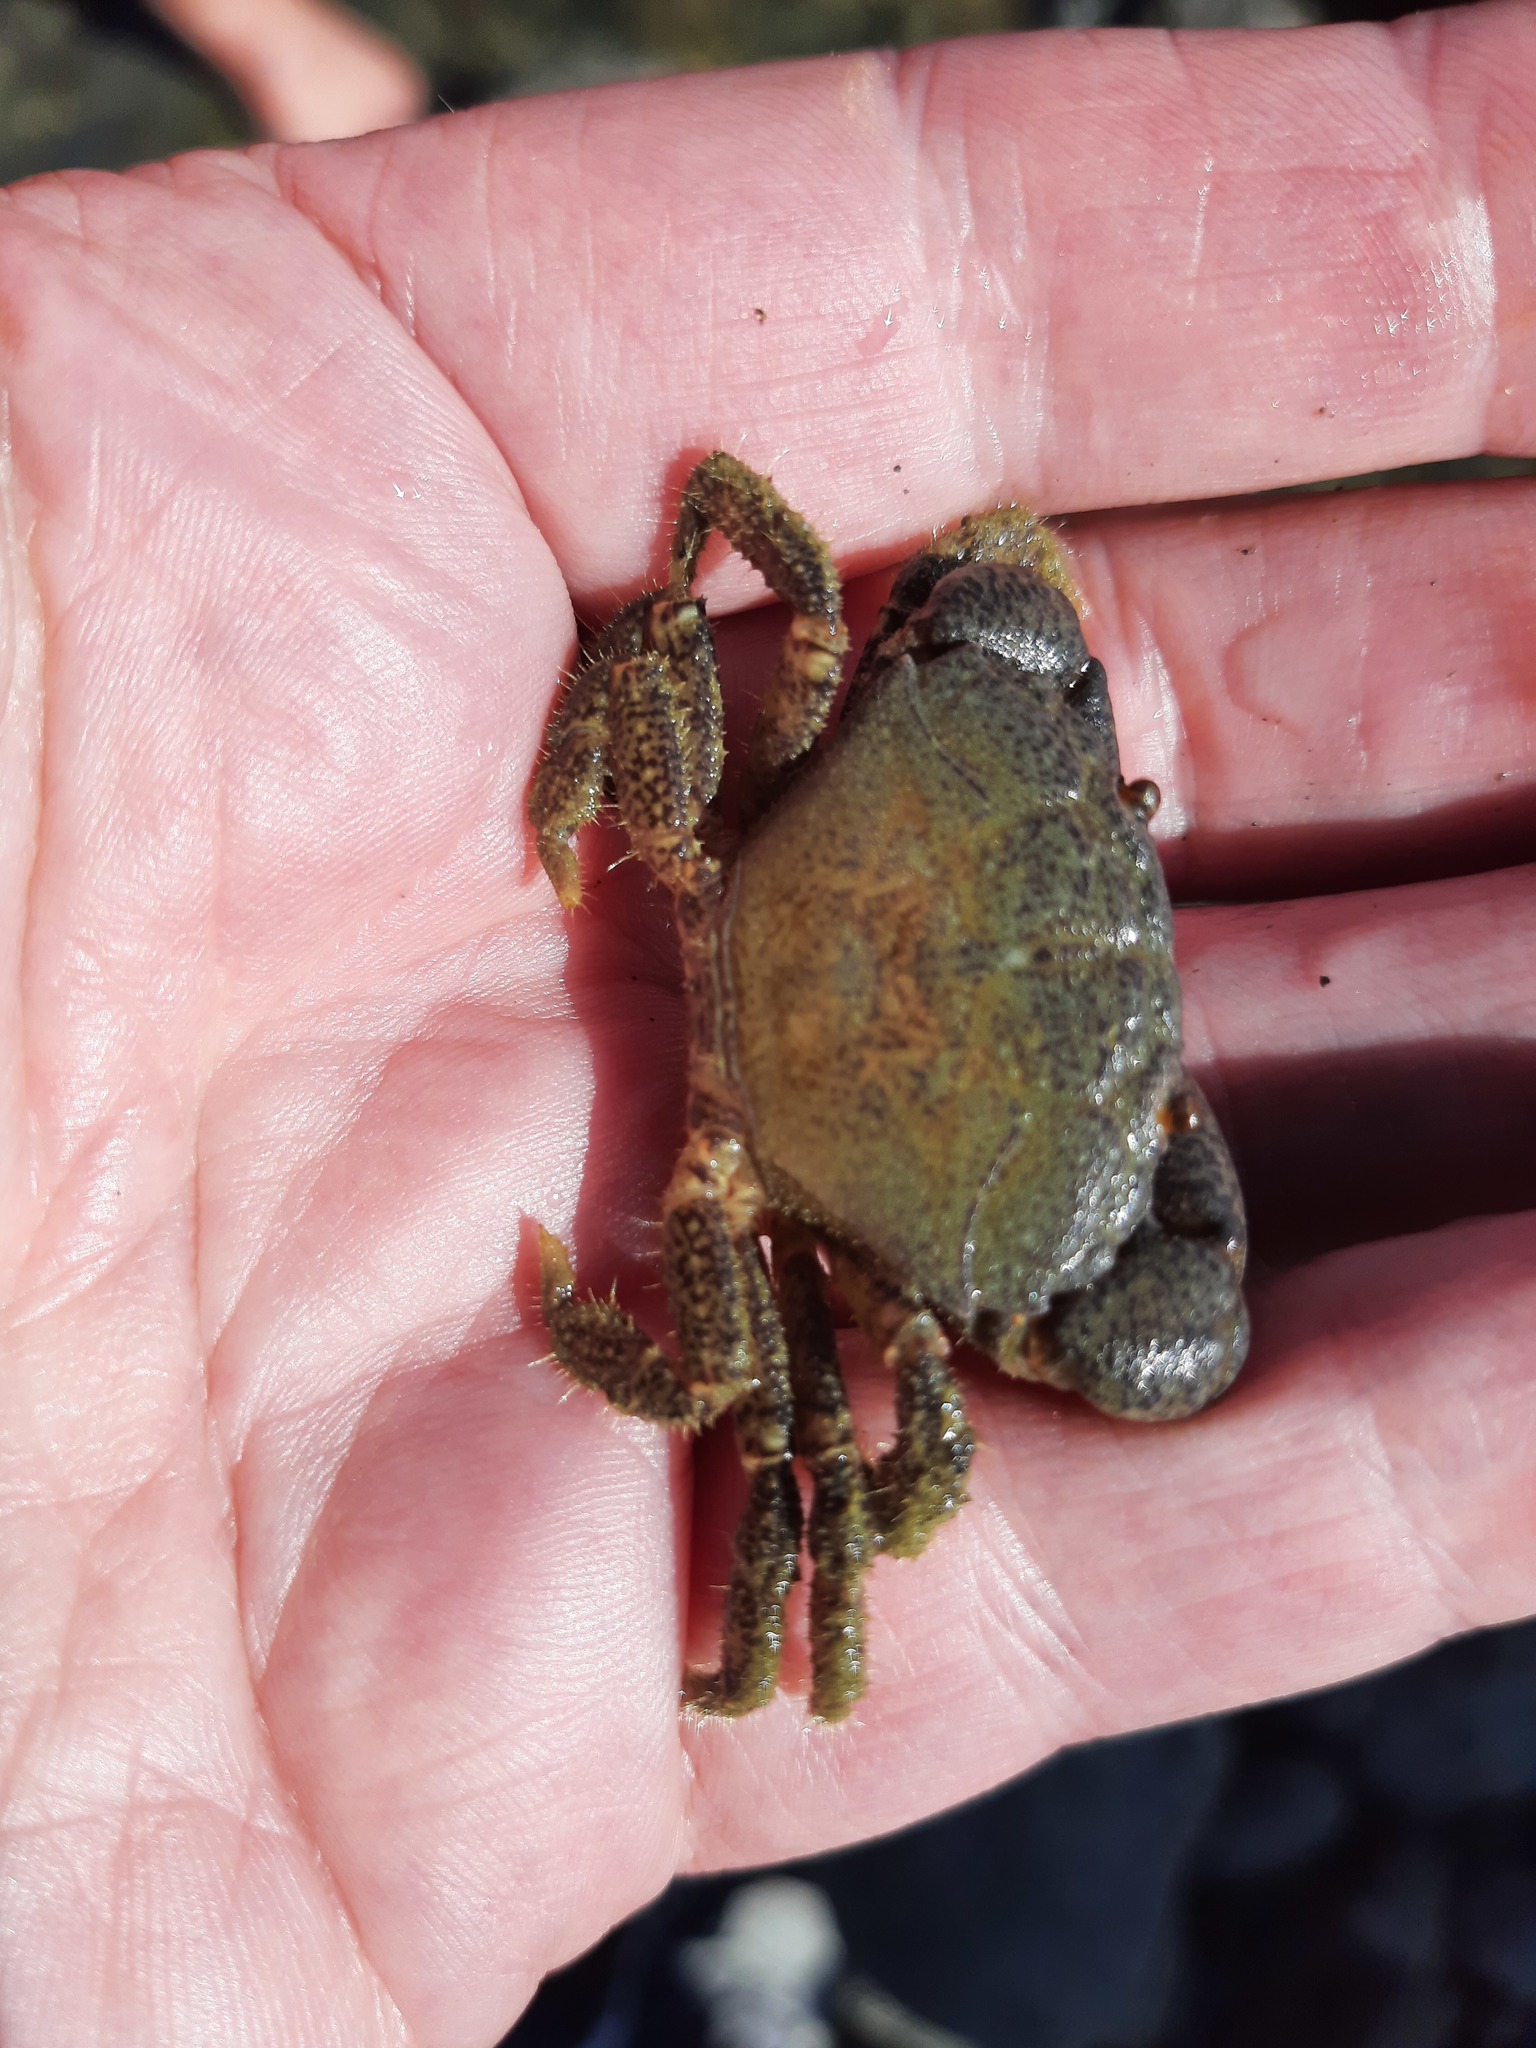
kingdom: Animalia
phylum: Arthropoda
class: Malacostraca
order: Decapoda
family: Oziidae
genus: Ozius
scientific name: Ozius deplanatus
